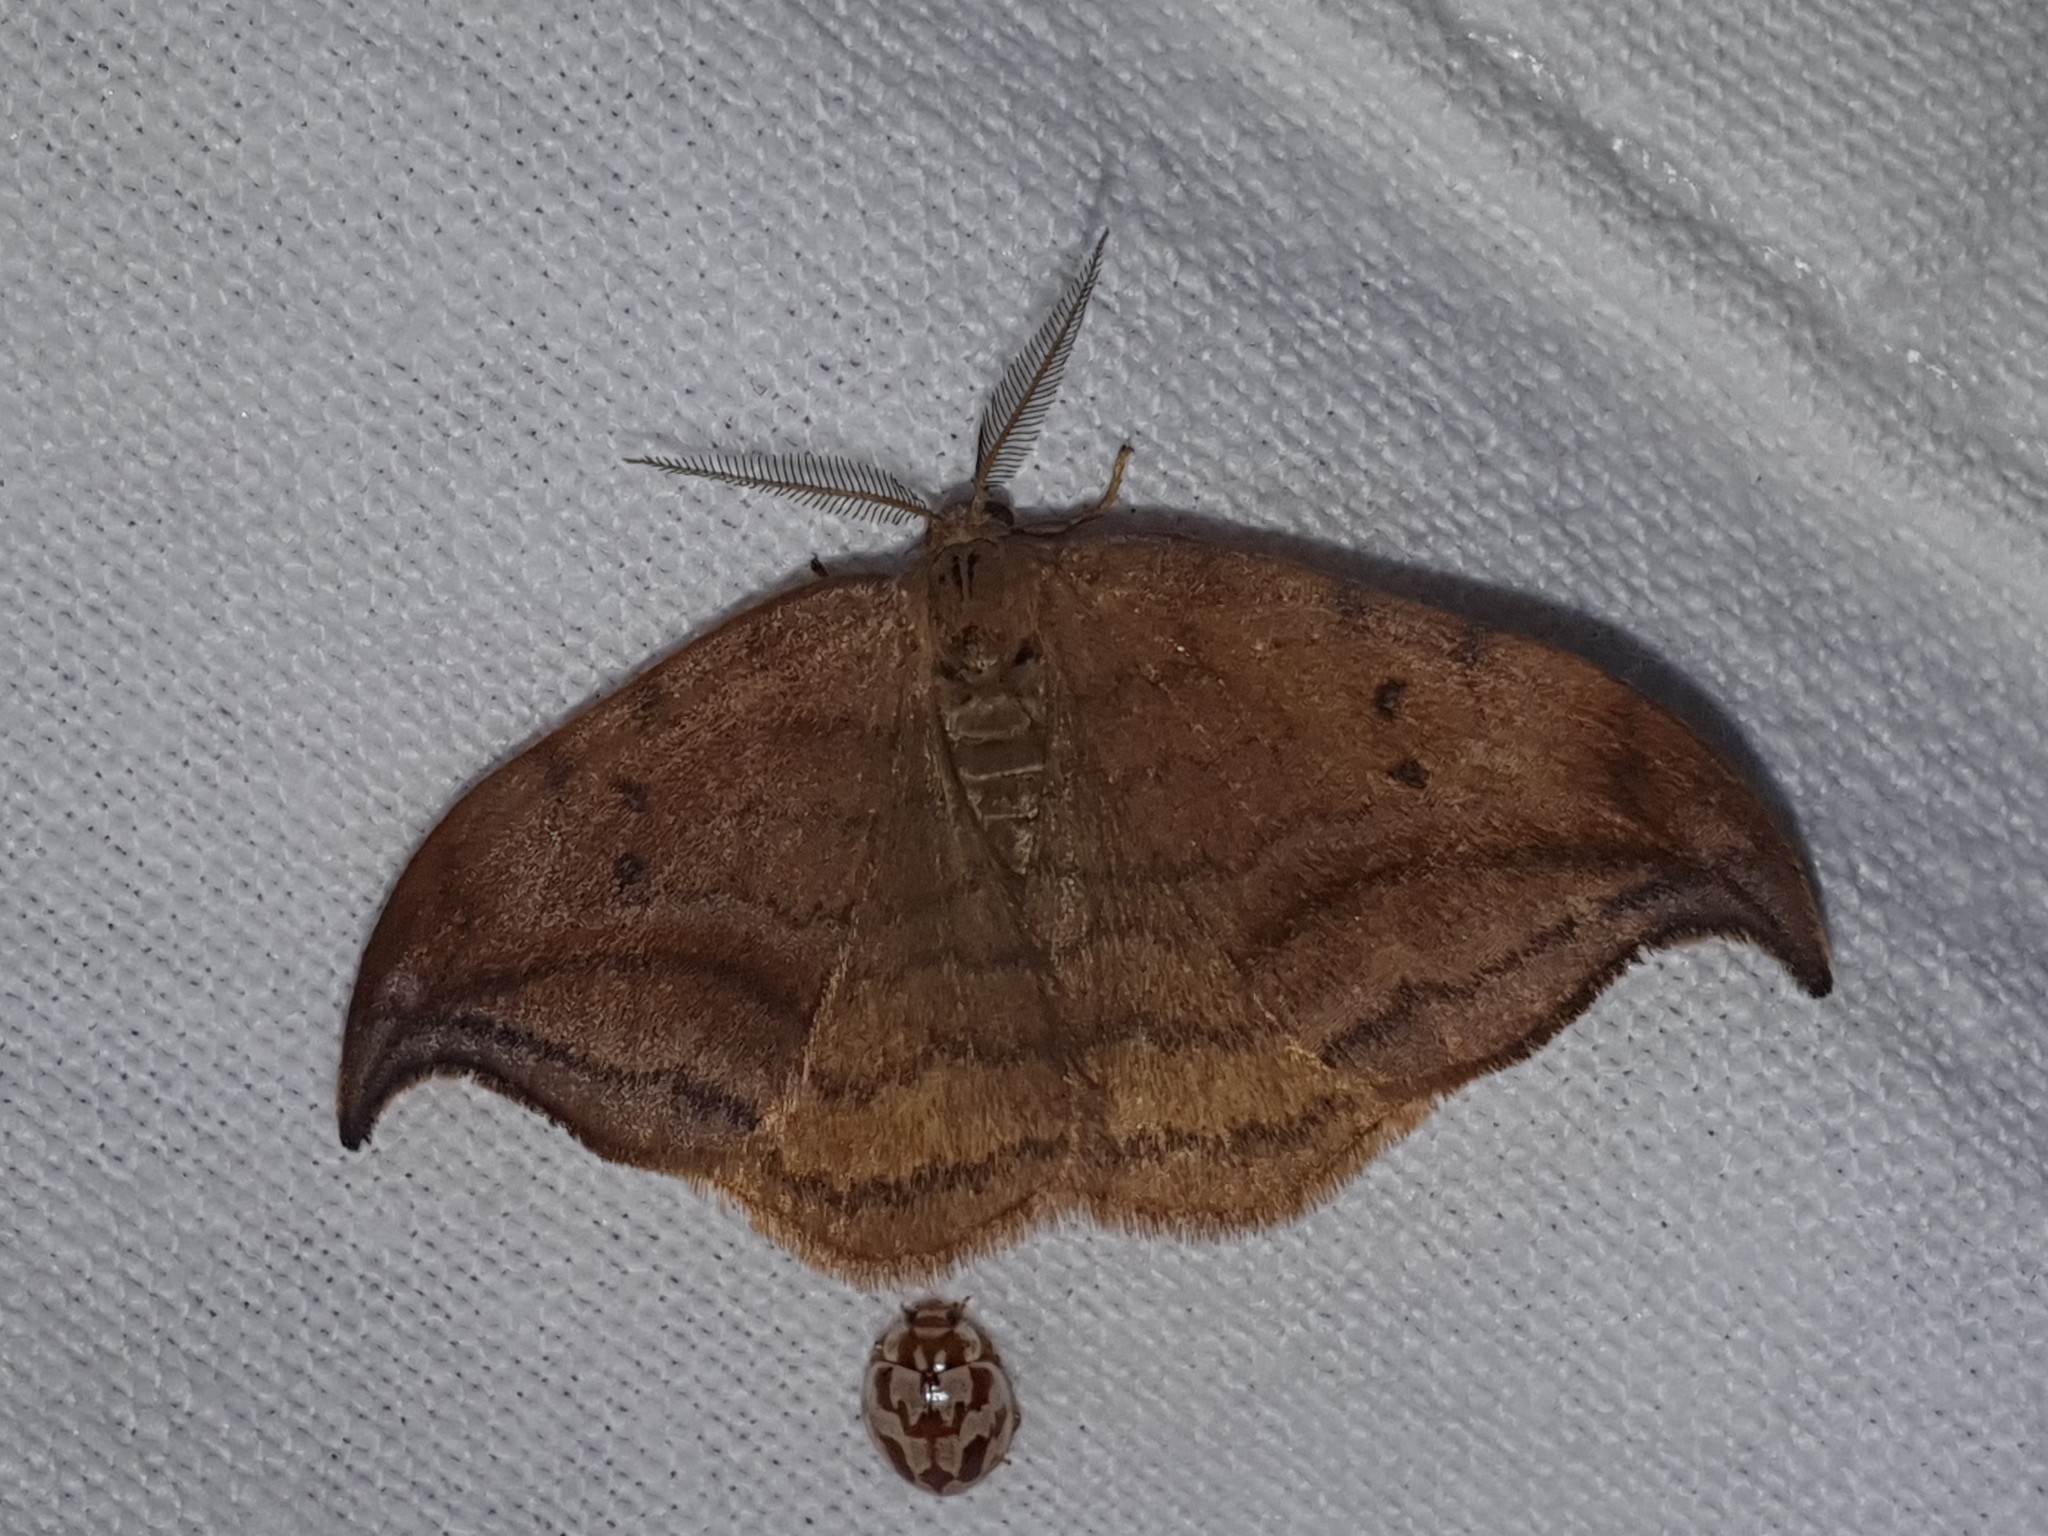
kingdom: Animalia
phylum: Arthropoda
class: Insecta
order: Lepidoptera
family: Drepanidae
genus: Drepana
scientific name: Drepana curvatula
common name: Dusky hook-tip
